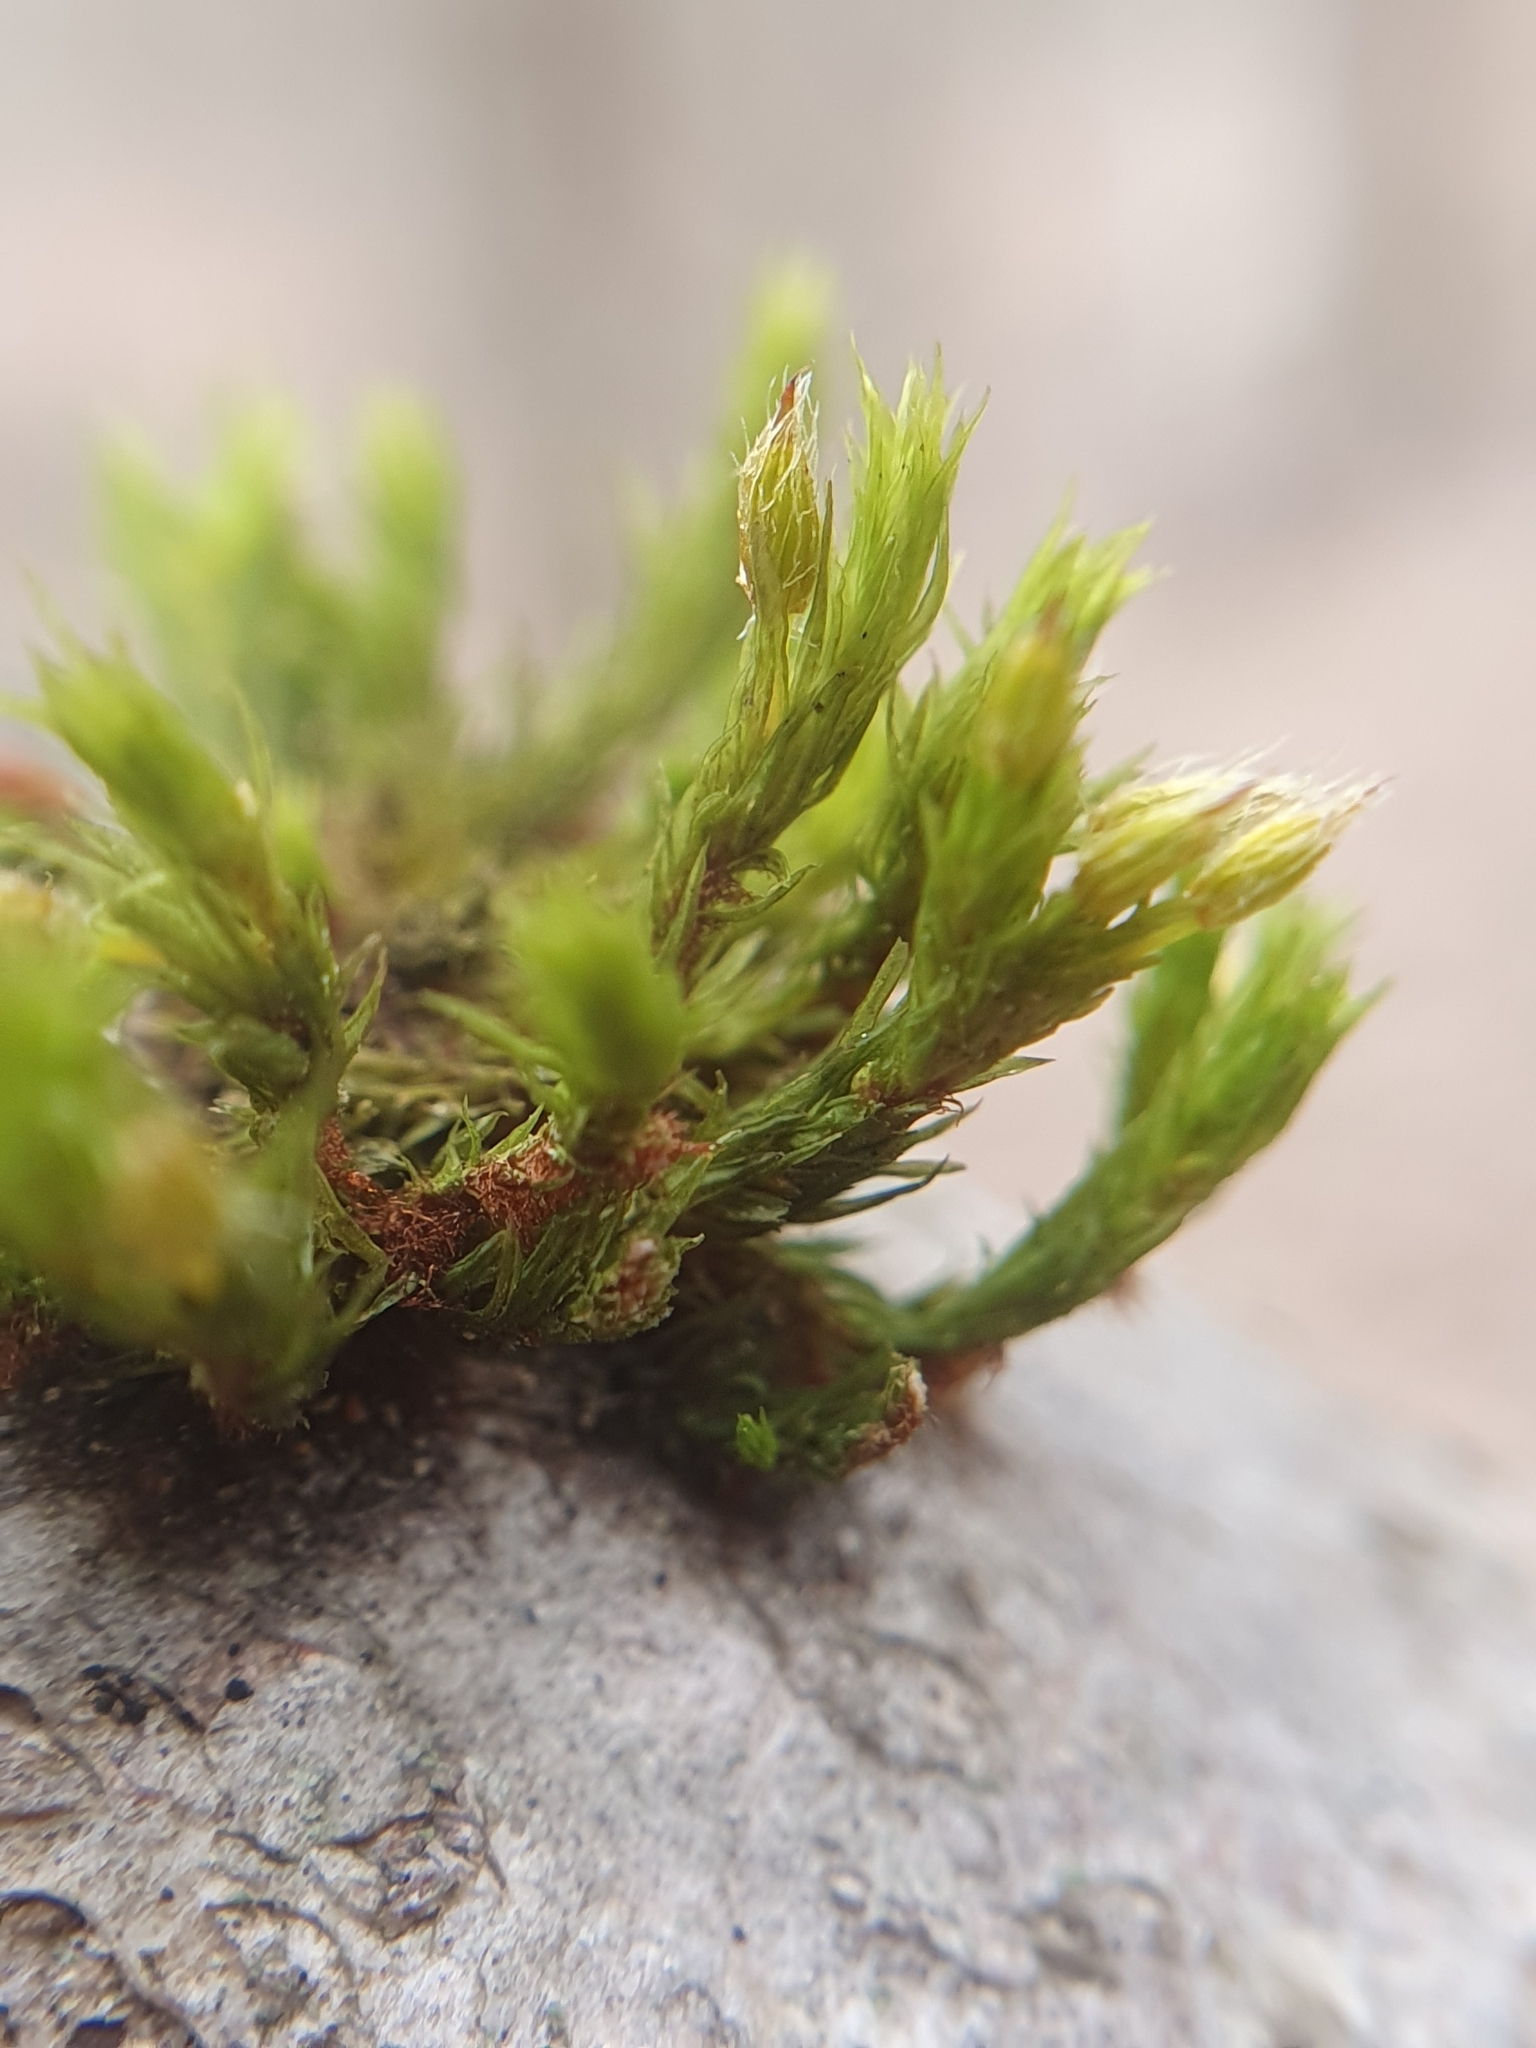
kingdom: Plantae
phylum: Bryophyta
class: Bryopsida
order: Orthotrichales
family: Orthotrichaceae
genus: Lewinskya
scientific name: Lewinskya speciosa
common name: Showy bristle moss
